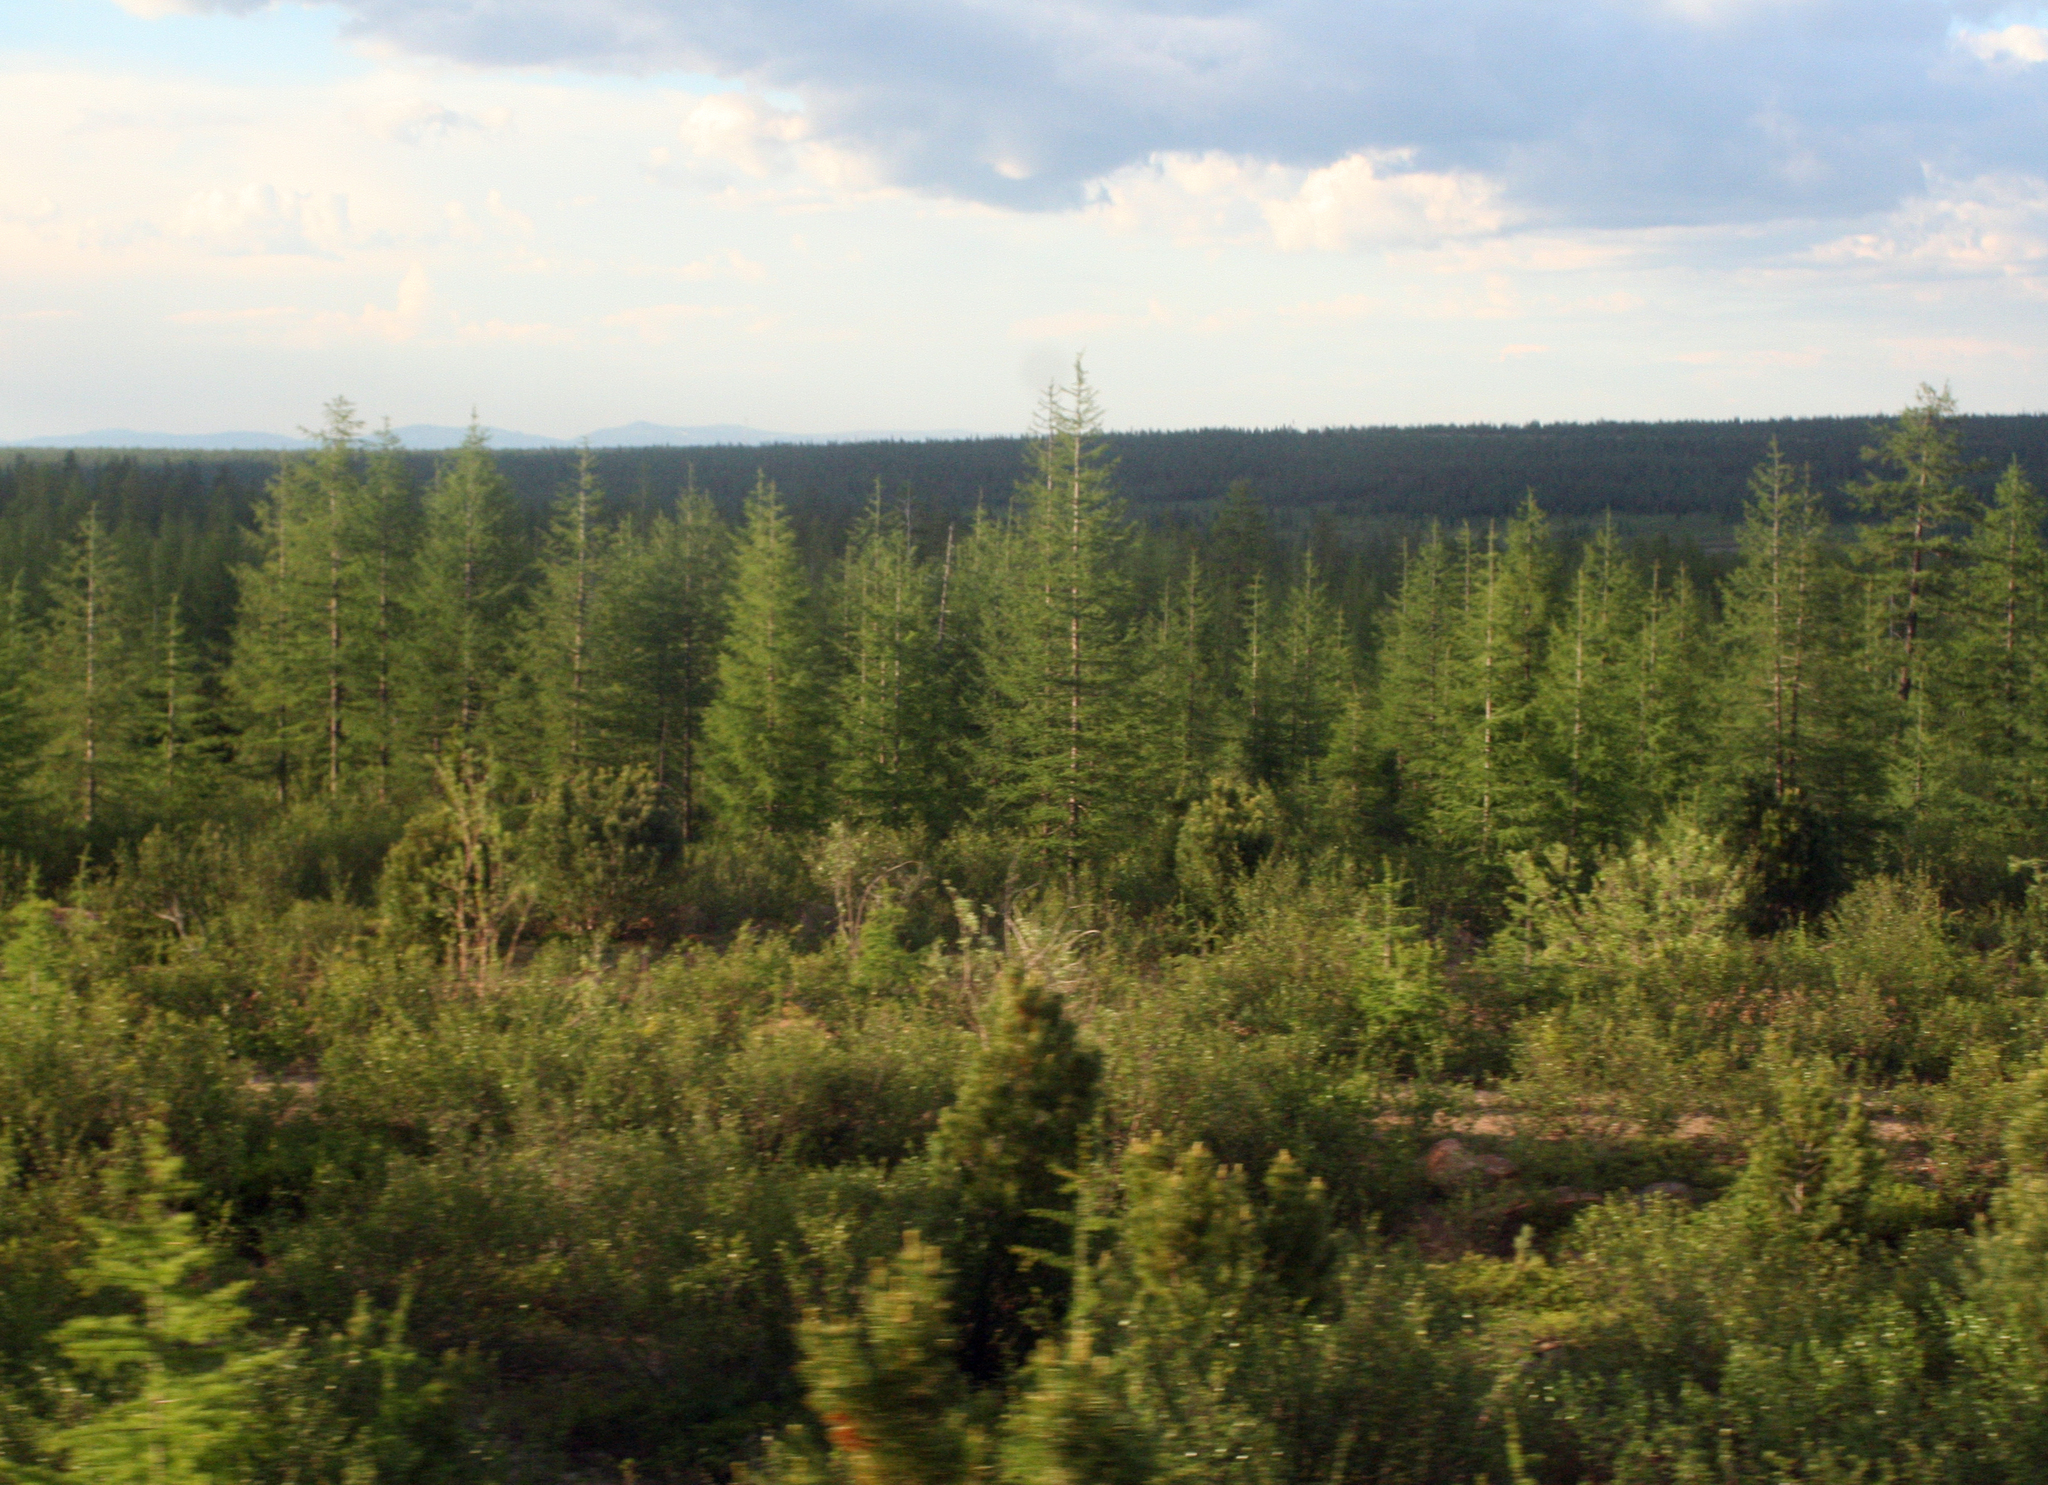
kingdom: Plantae
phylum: Tracheophyta
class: Pinopsida
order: Pinales
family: Pinaceae
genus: Pinus
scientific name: Pinus pumila
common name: Dwarf siberian pine
